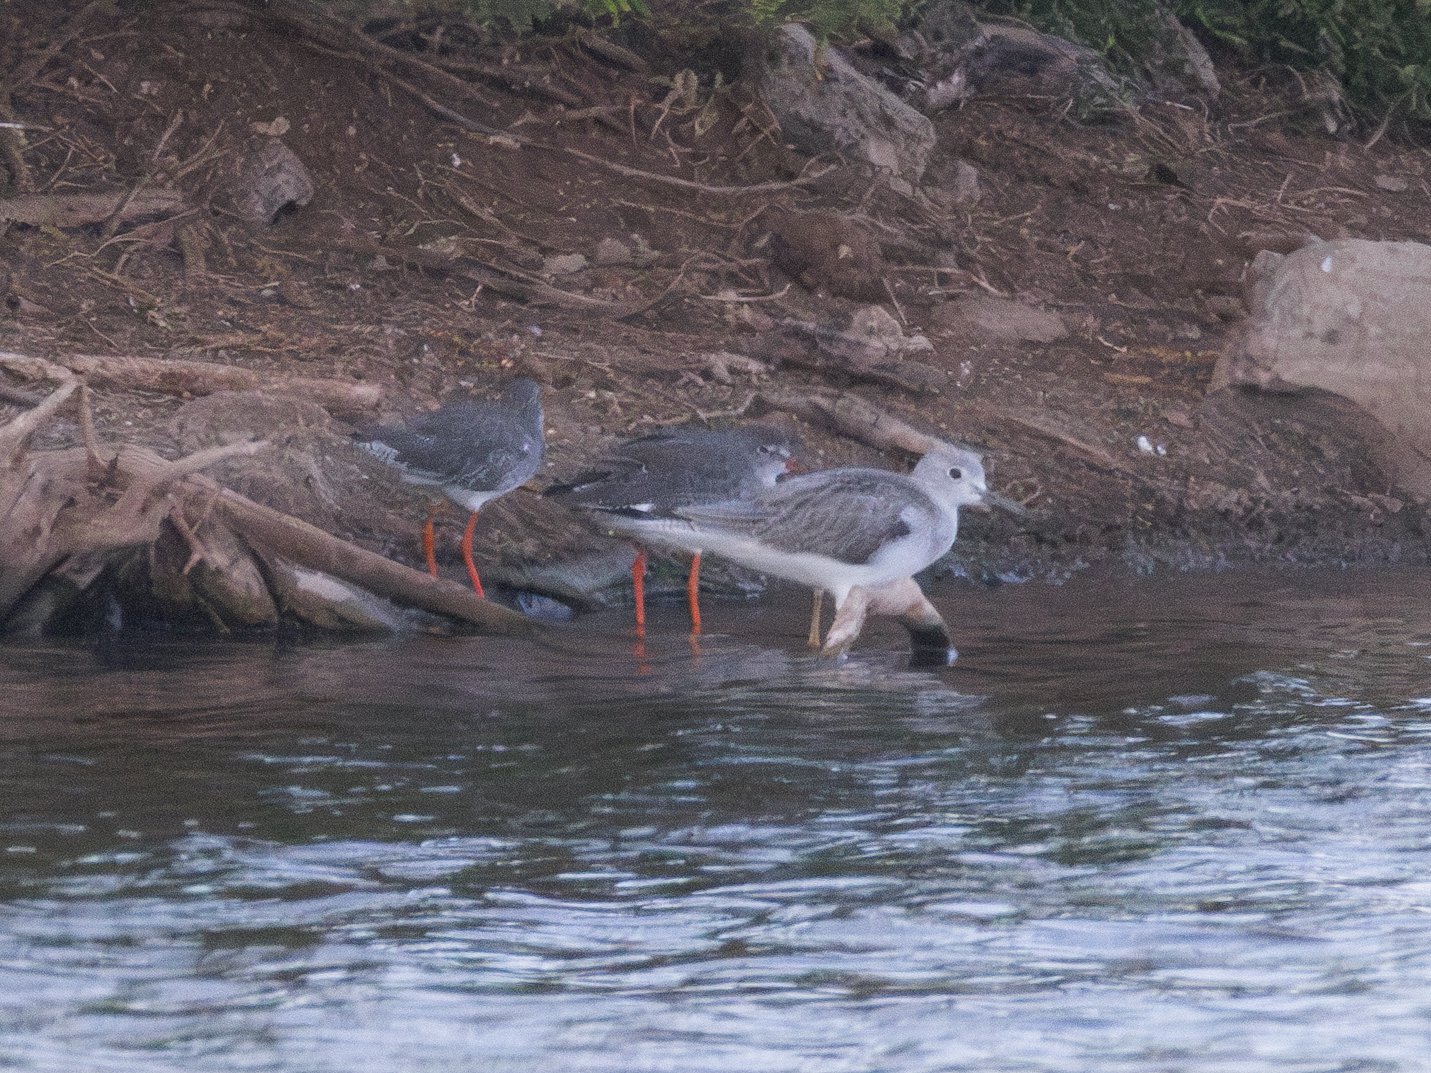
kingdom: Animalia
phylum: Chordata
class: Aves
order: Charadriiformes
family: Scolopacidae
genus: Tringa
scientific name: Tringa nebularia
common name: Common greenshank
